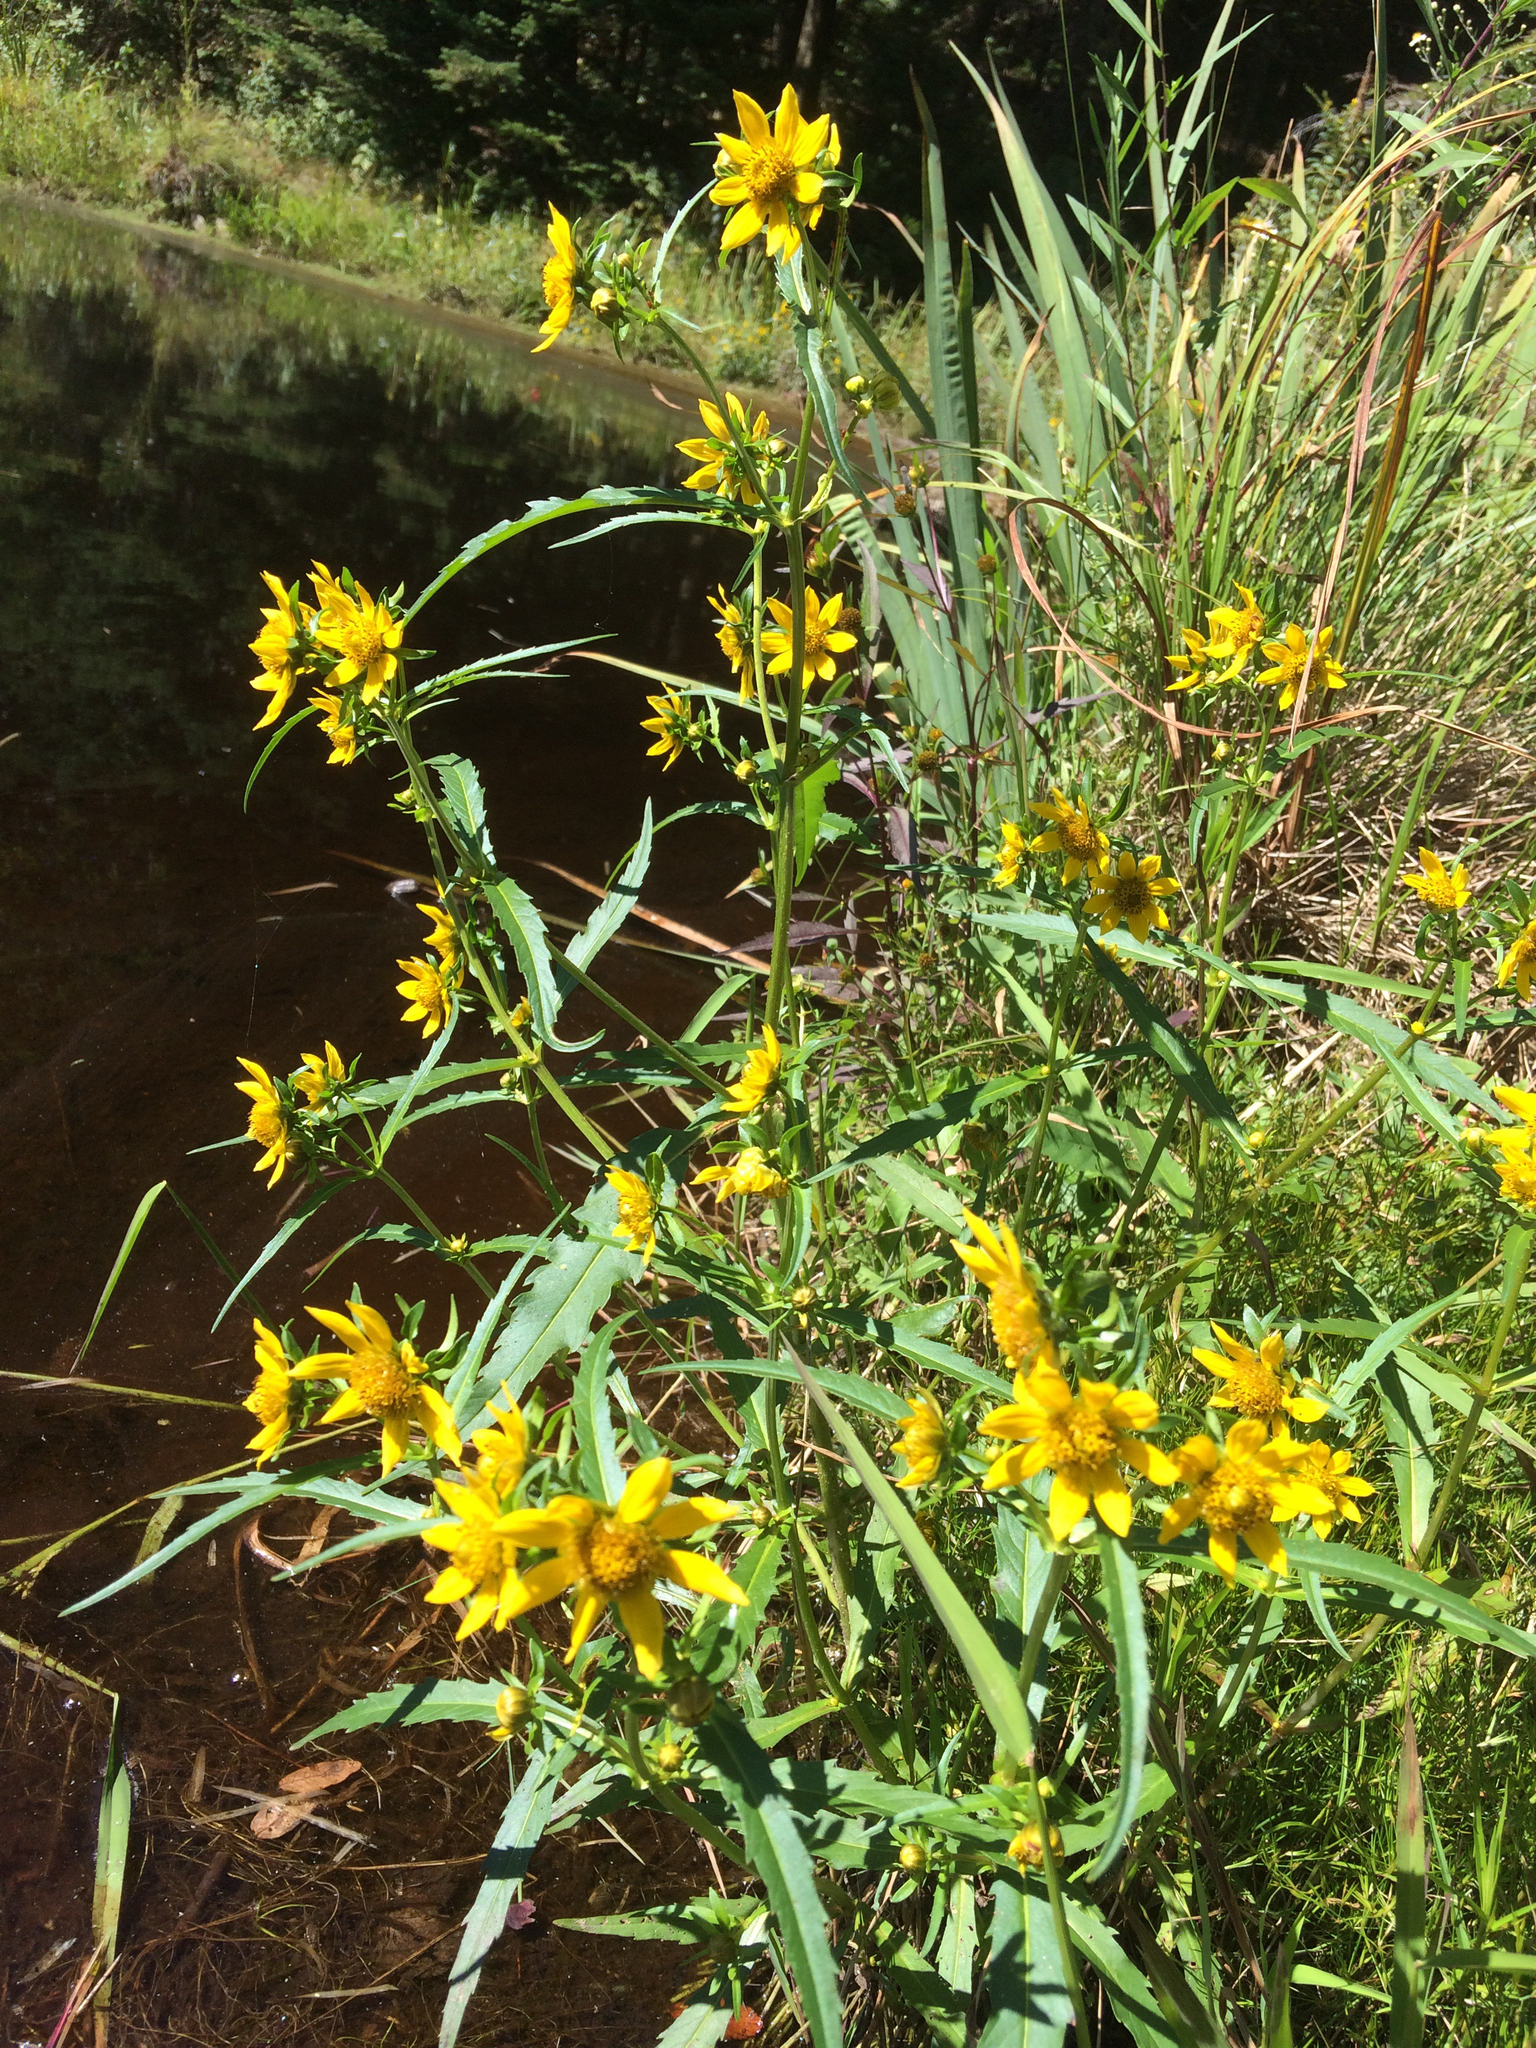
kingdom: Plantae
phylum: Tracheophyta
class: Magnoliopsida
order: Asterales
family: Asteraceae
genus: Bidens
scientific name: Bidens cernua
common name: Nodding bur-marigold
